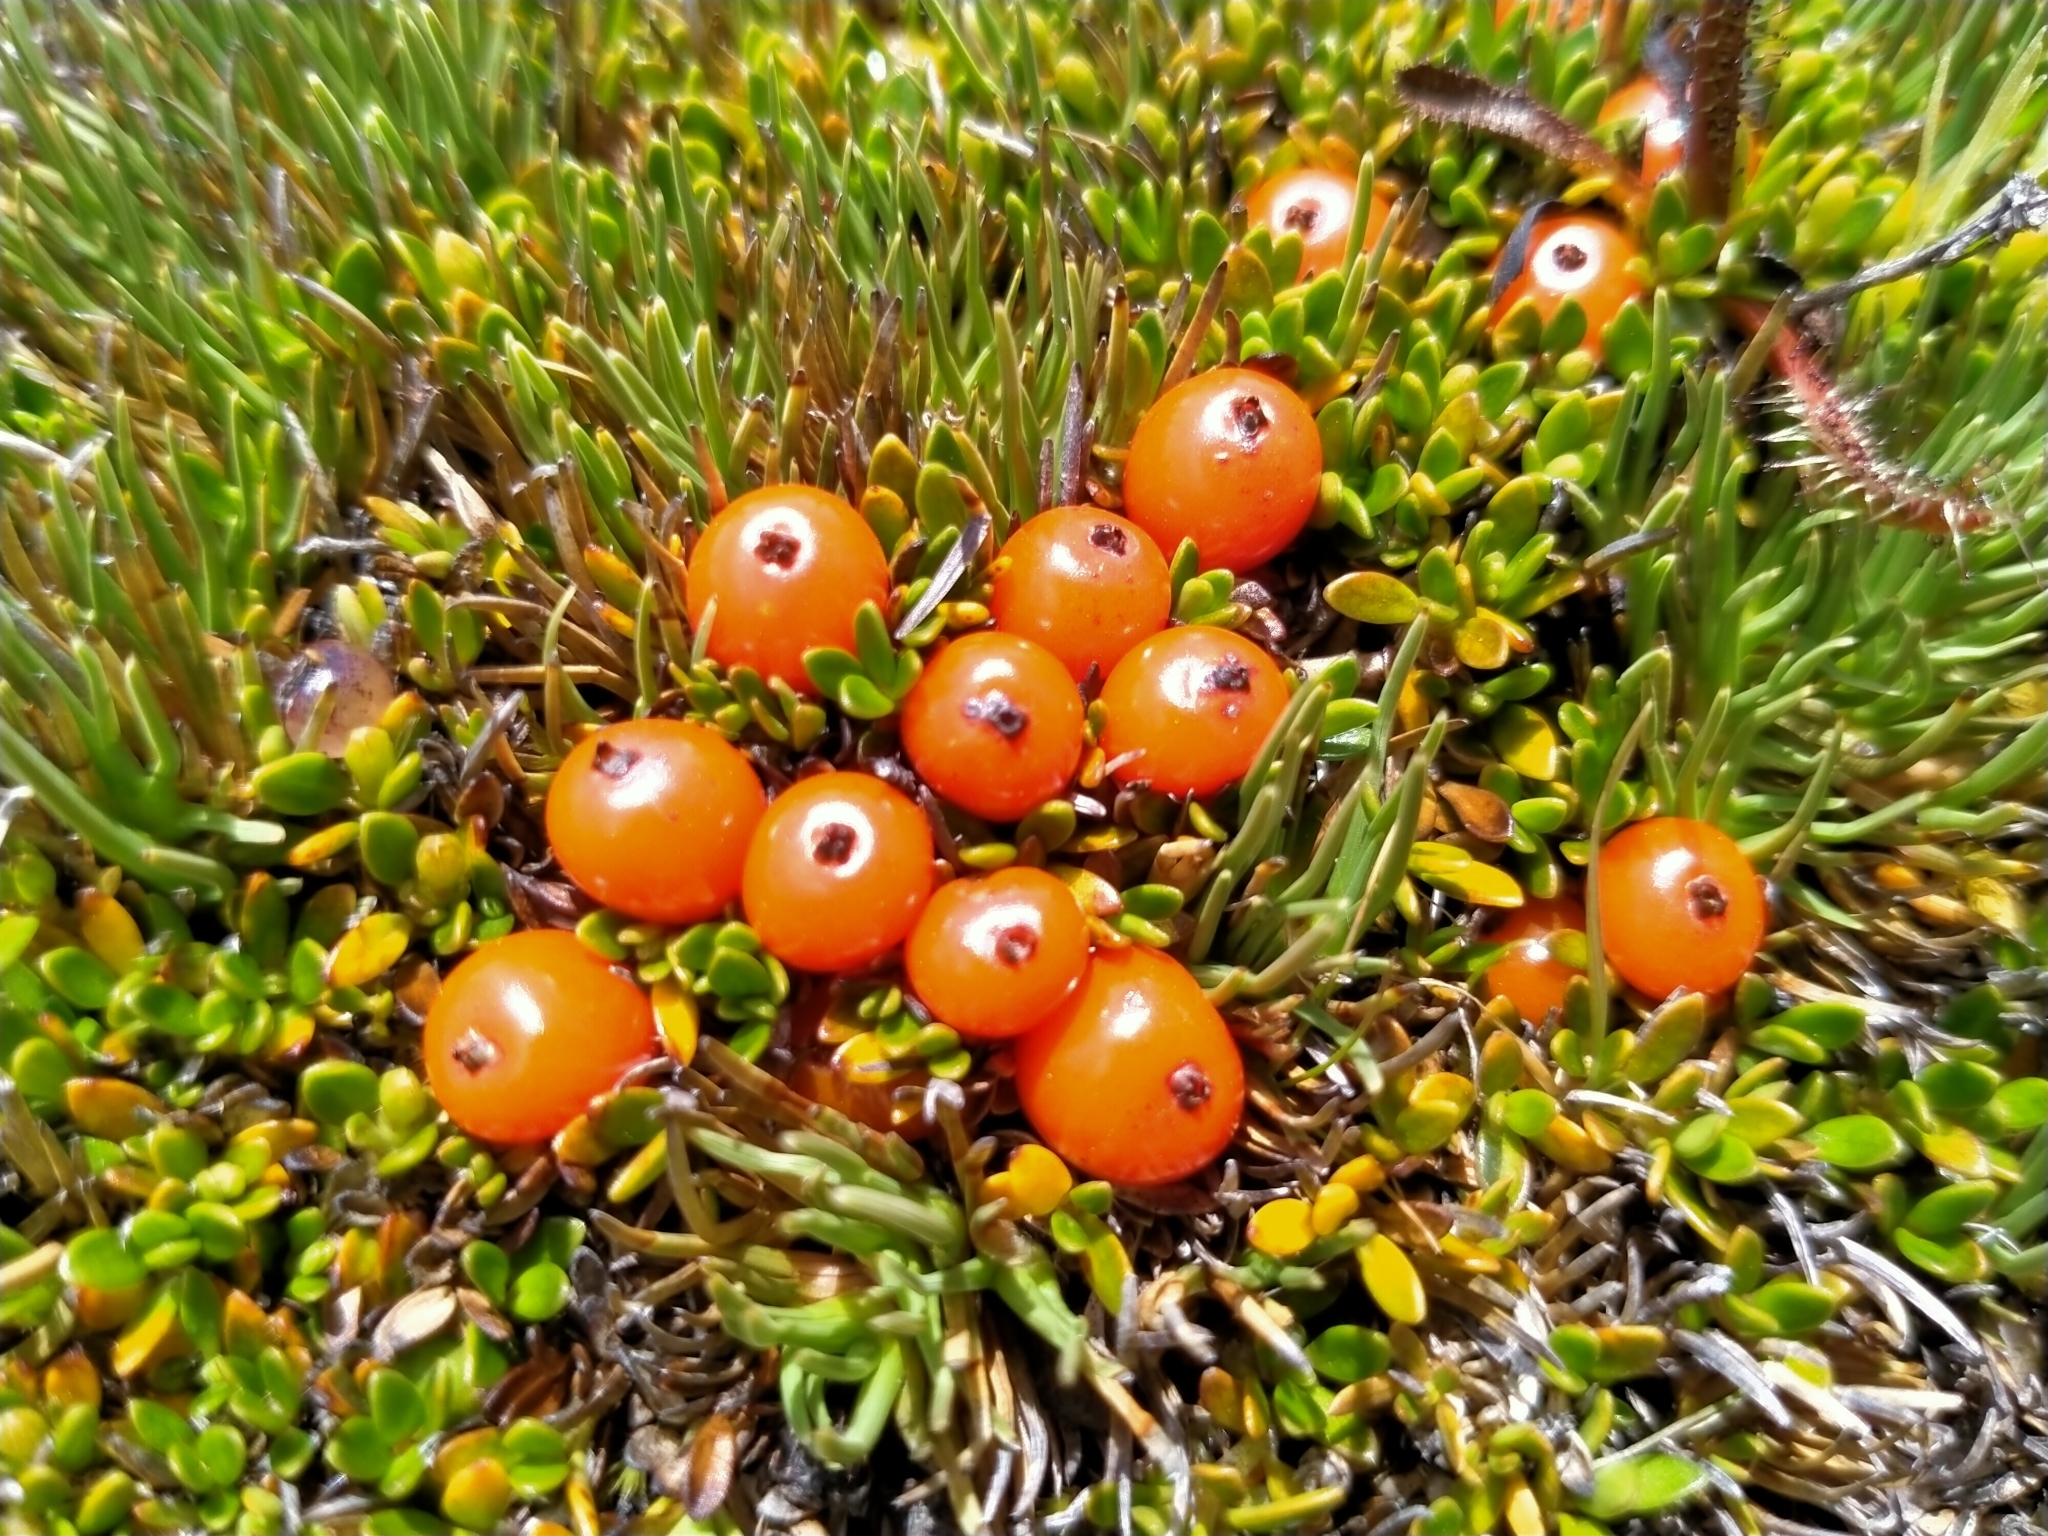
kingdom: Plantae
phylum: Tracheophyta
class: Magnoliopsida
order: Gentianales
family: Rubiaceae
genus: Coprosma
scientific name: Coprosma perpusilla
